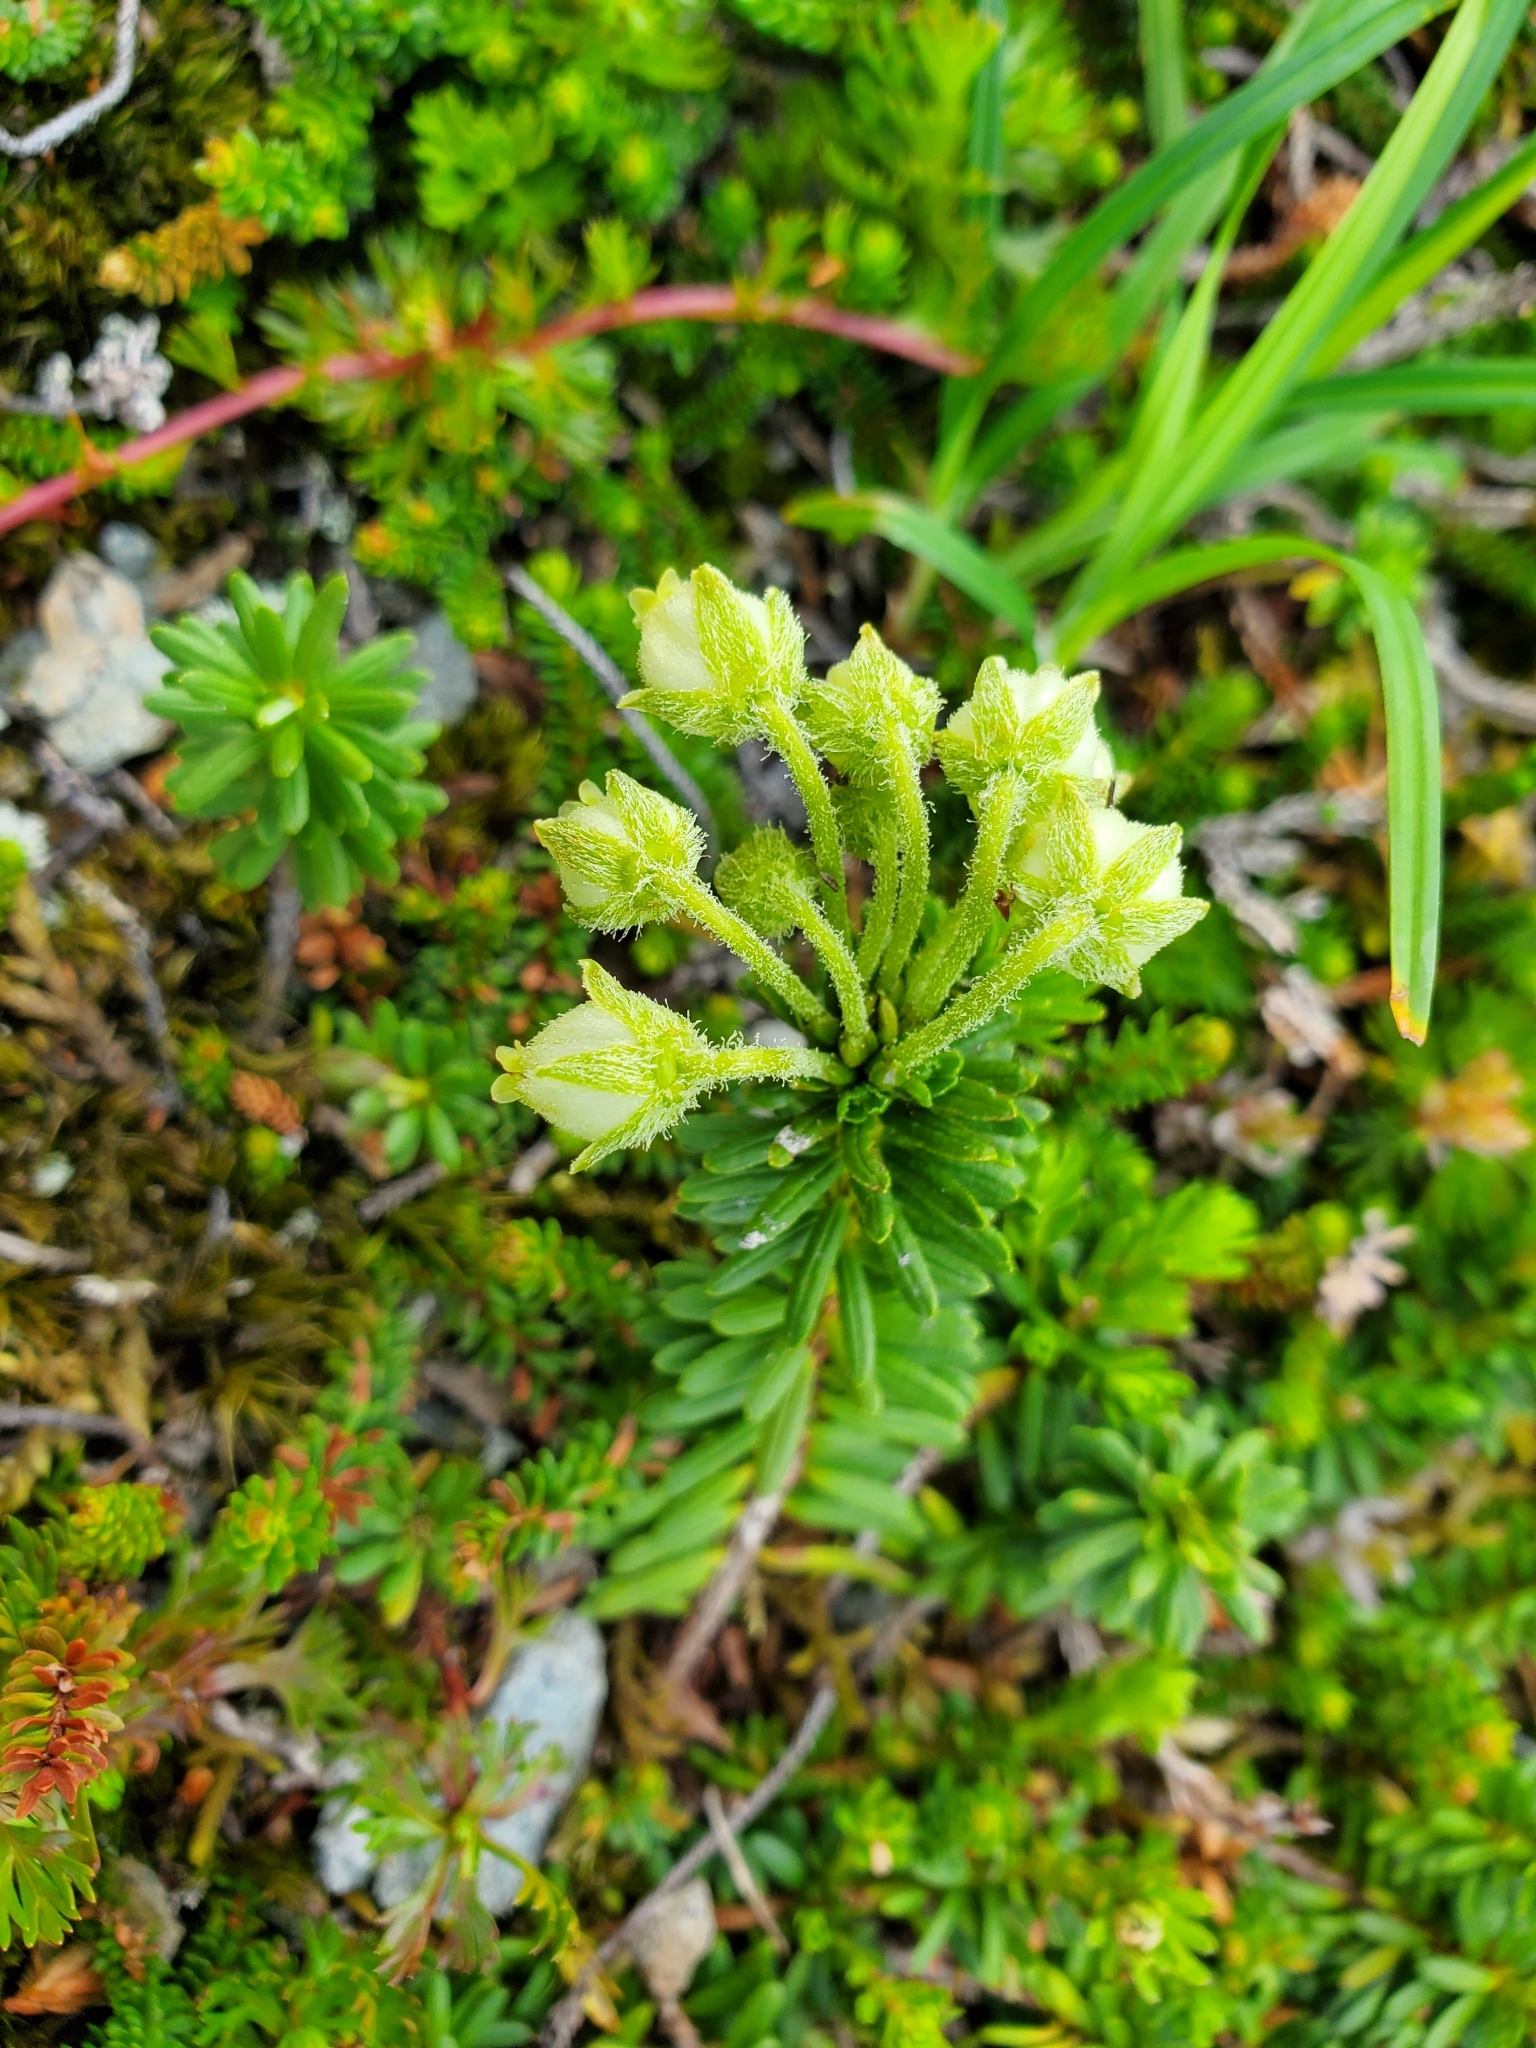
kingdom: Plantae
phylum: Tracheophyta
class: Magnoliopsida
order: Ericales
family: Ericaceae
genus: Phyllodoce
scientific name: Phyllodoce glanduliflora
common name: Cream mountain heather
